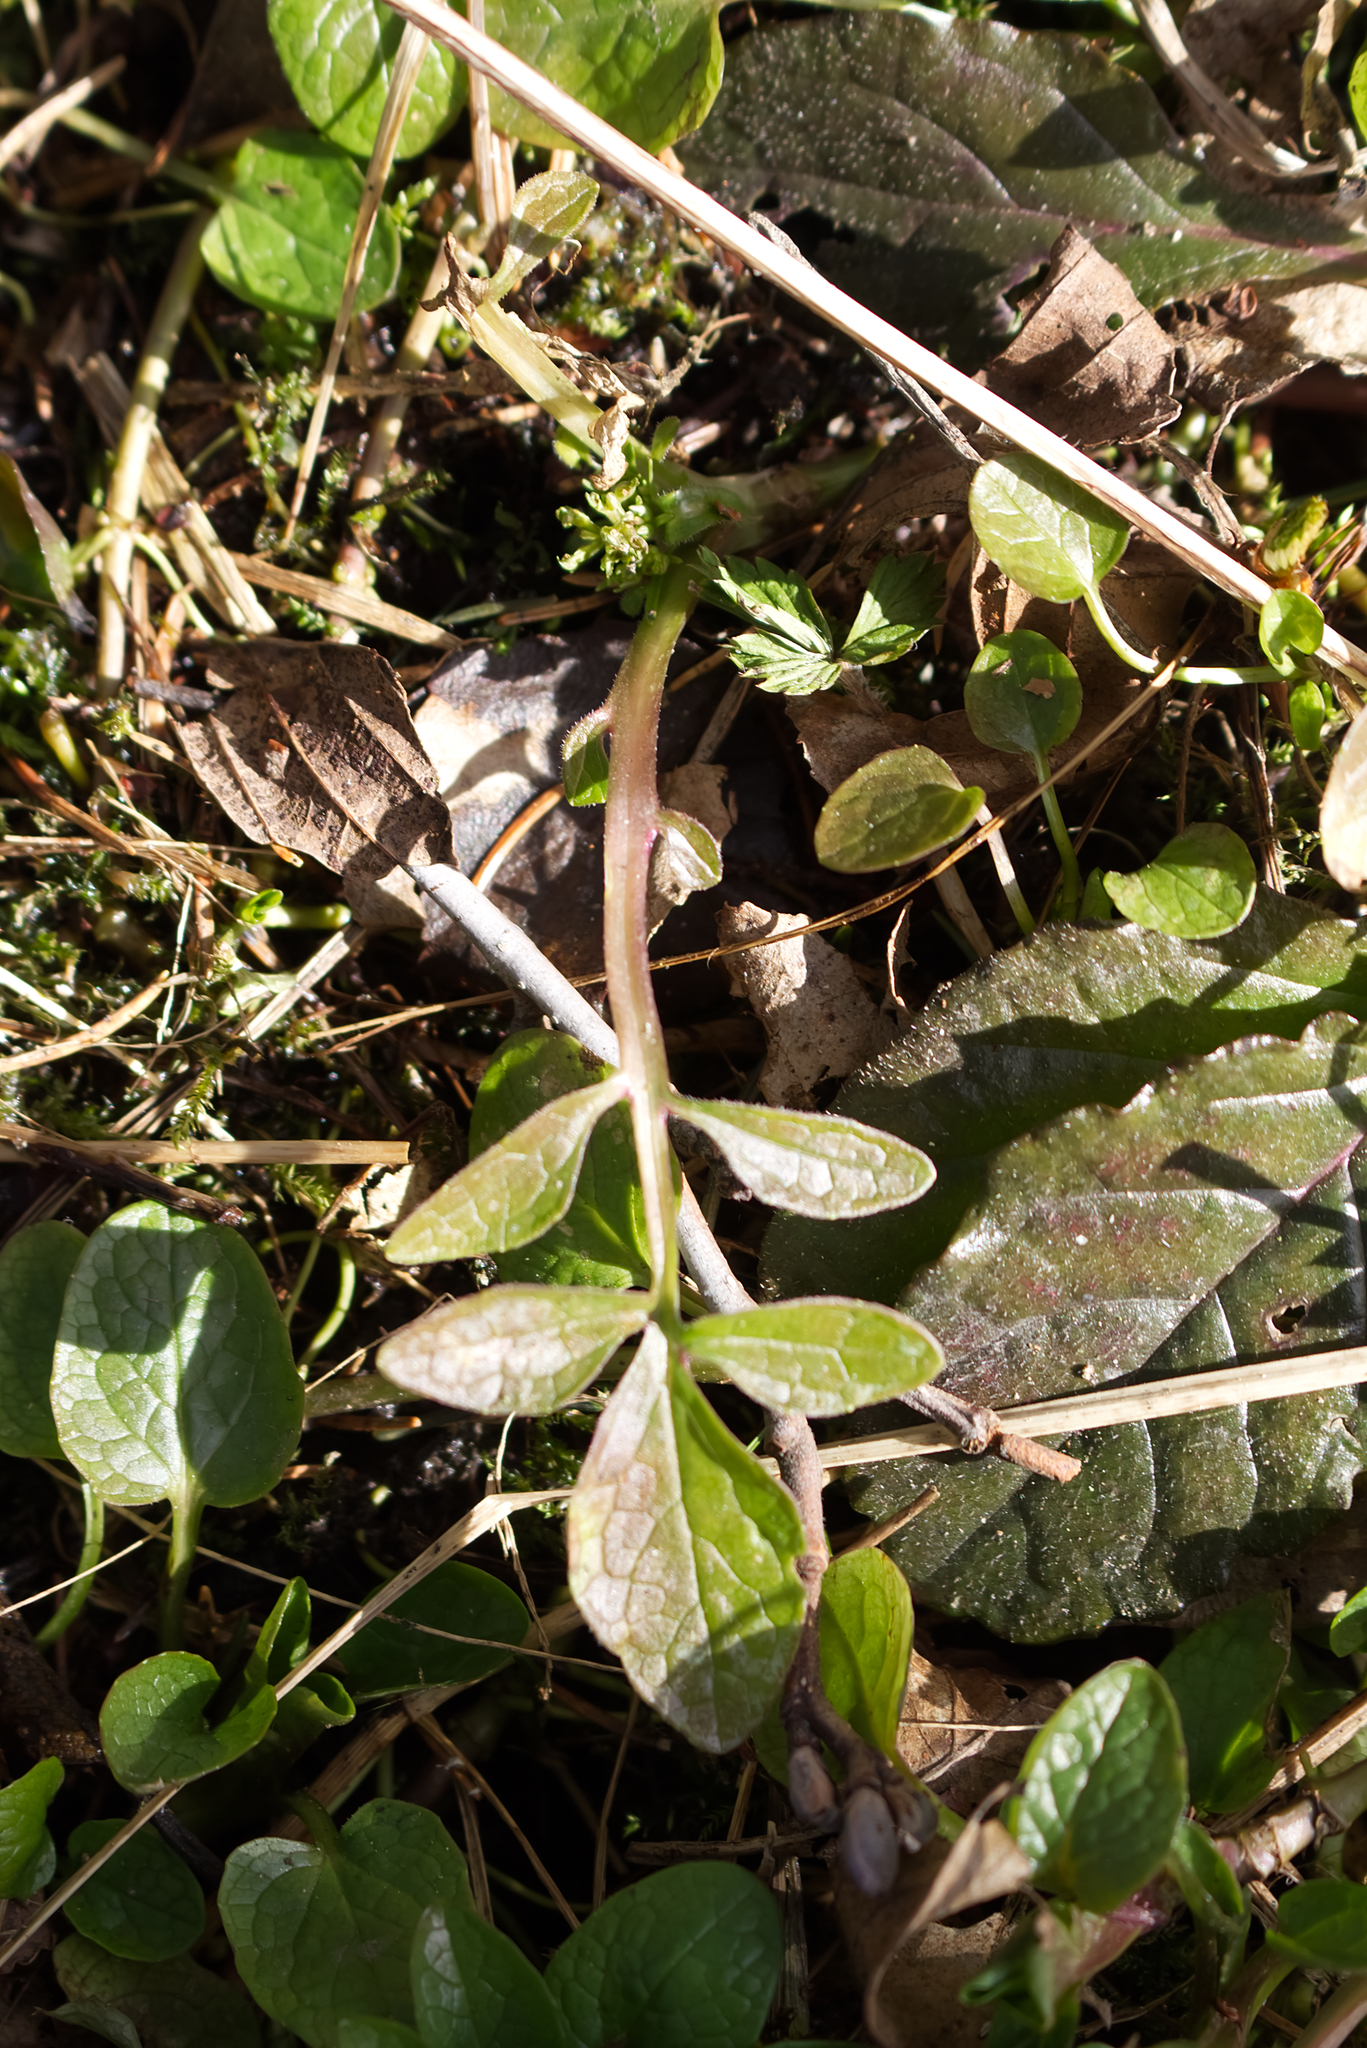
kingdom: Plantae
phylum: Tracheophyta
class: Magnoliopsida
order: Dipsacales
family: Caprifoliaceae
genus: Valeriana
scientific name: Valeriana dioica
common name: Marsh valerian
